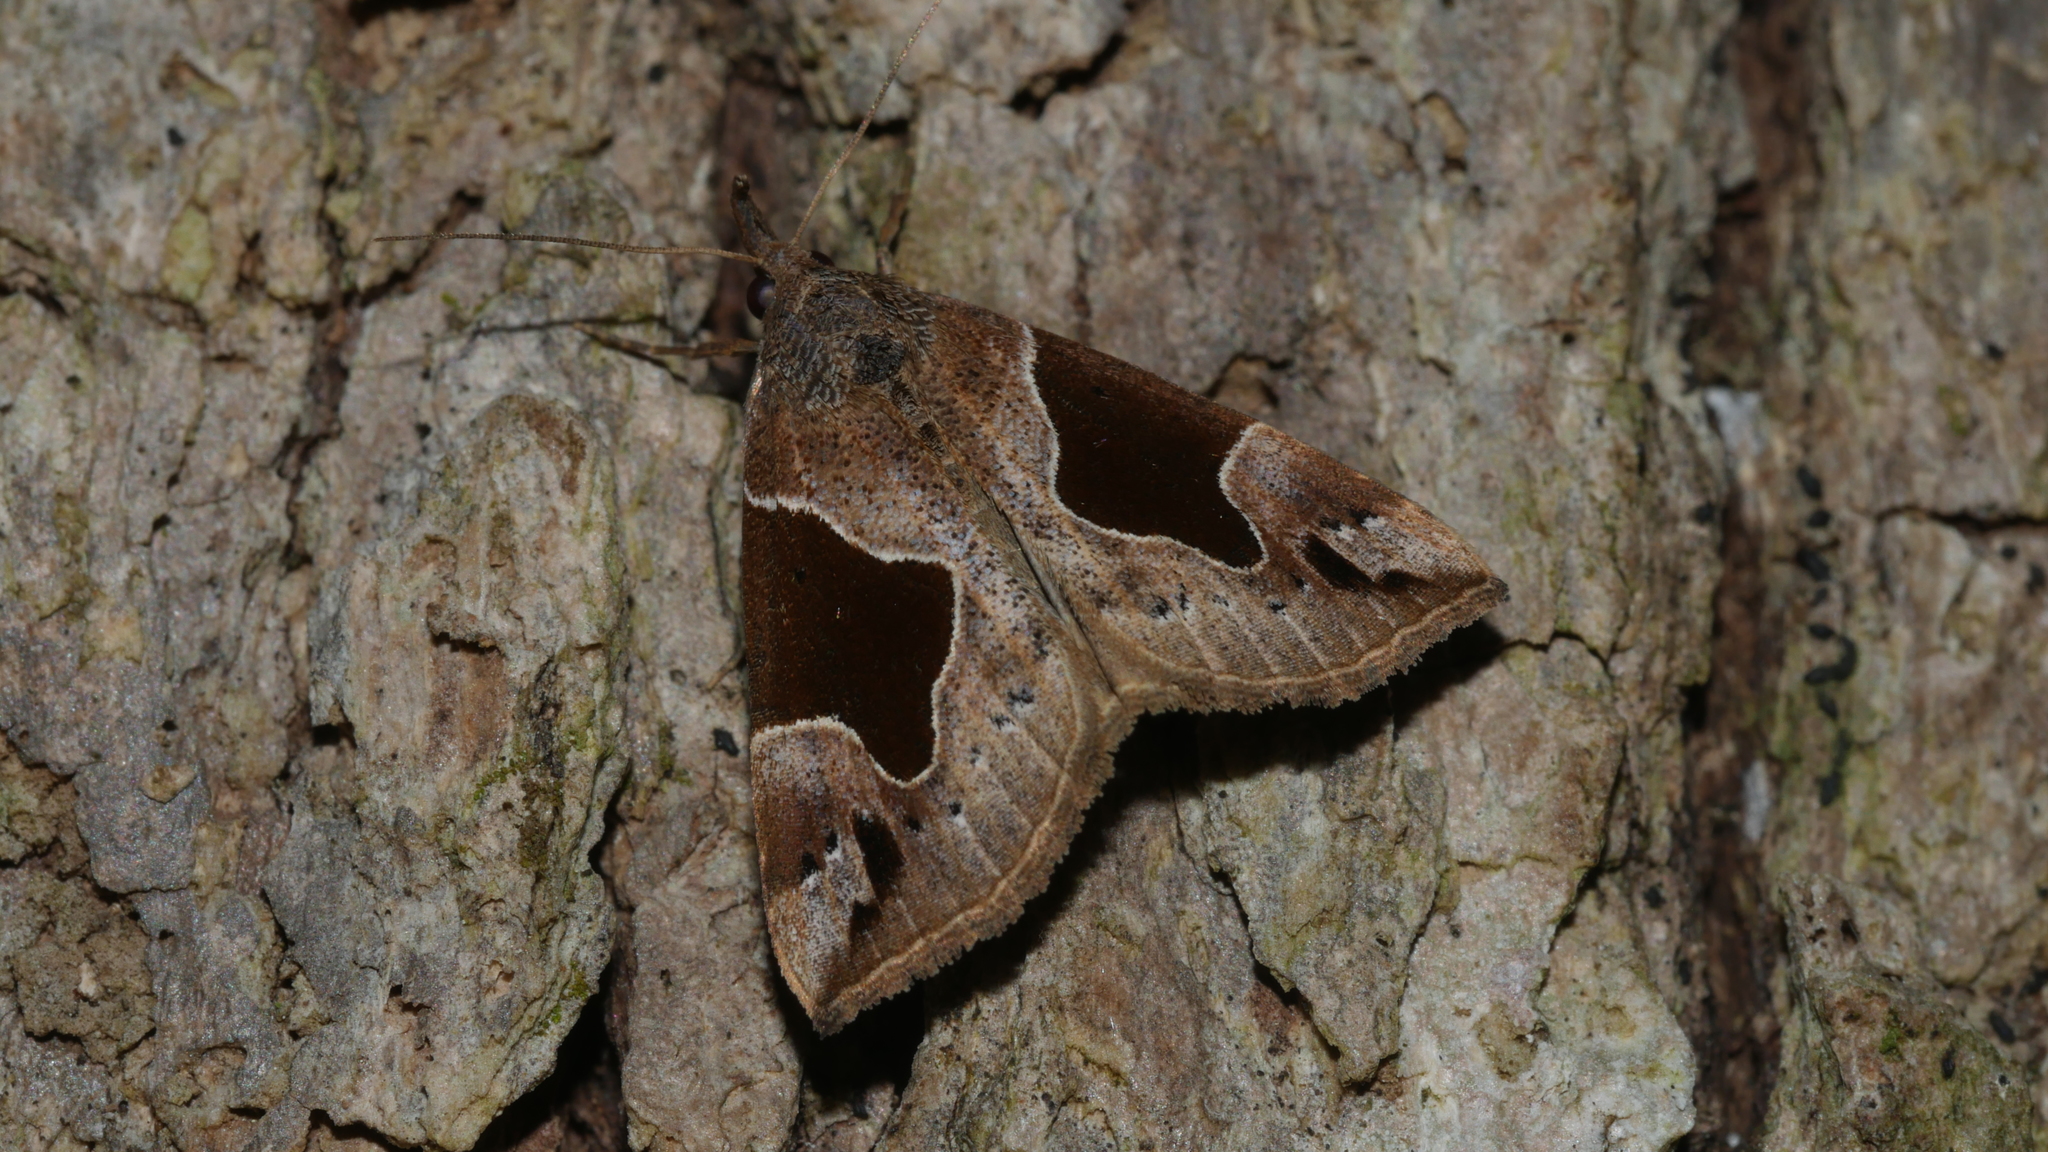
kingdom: Animalia
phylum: Arthropoda
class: Insecta
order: Lepidoptera
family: Erebidae
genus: Hypena
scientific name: Hypena manalis
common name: Flowing-line bomolocha moth
